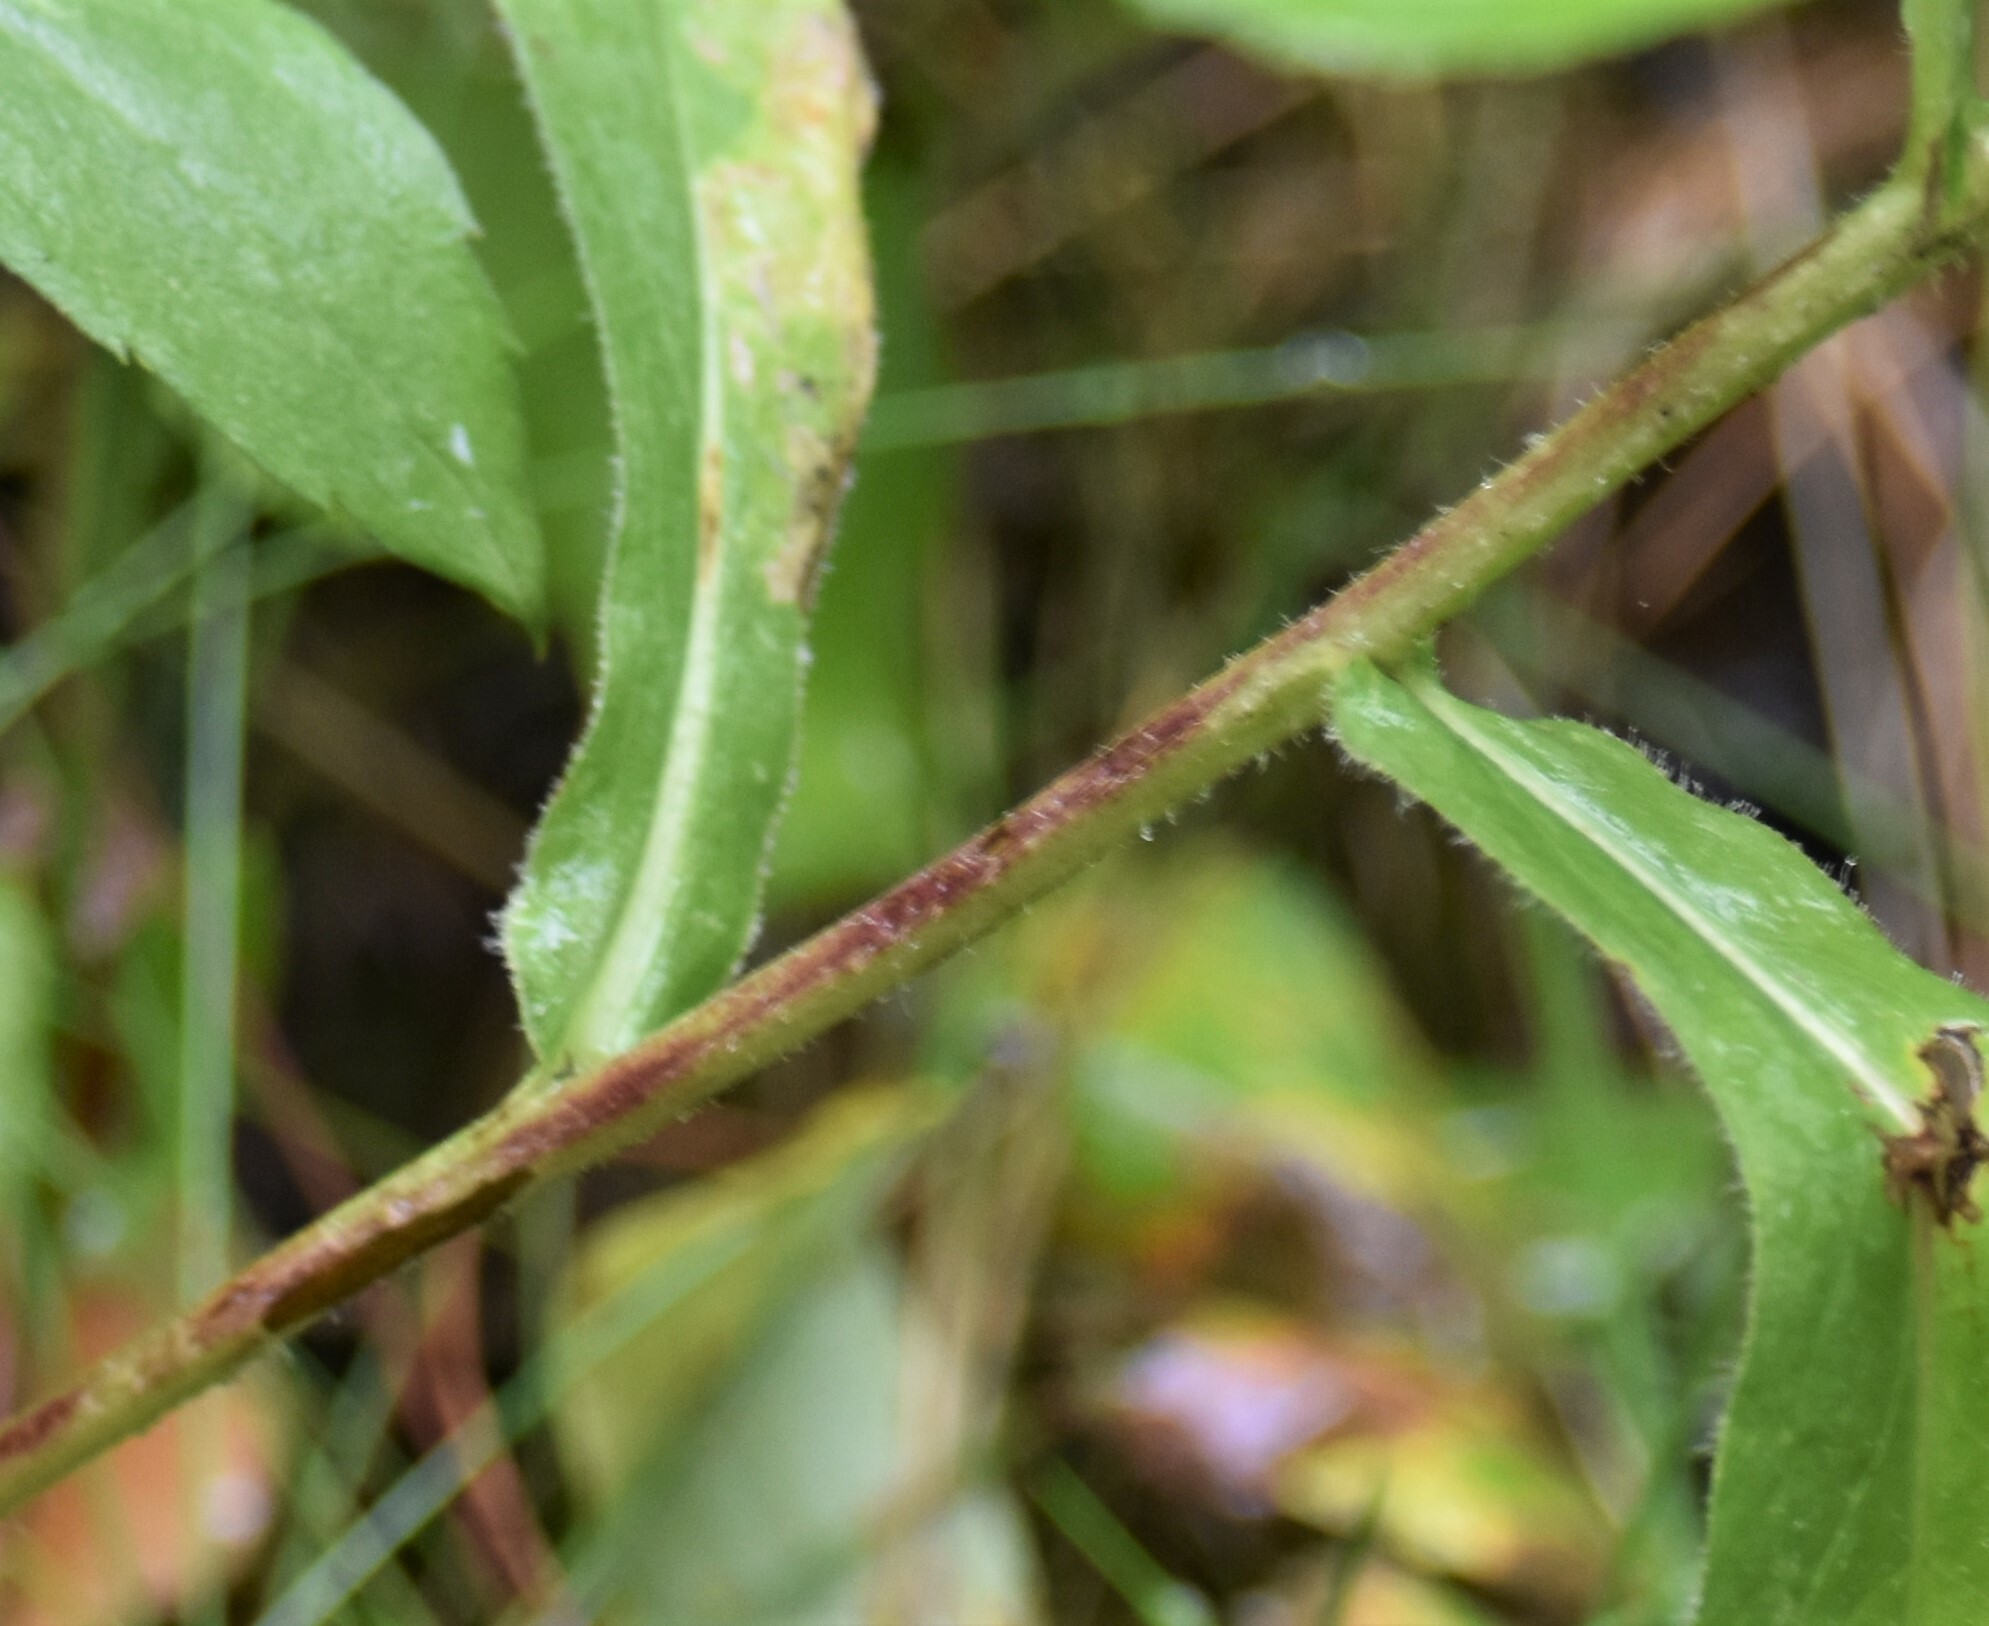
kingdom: Plantae
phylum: Tracheophyta
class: Magnoliopsida
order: Asterales
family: Asteraceae
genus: Eurybia
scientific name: Eurybia conspicua
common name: Showy aster
